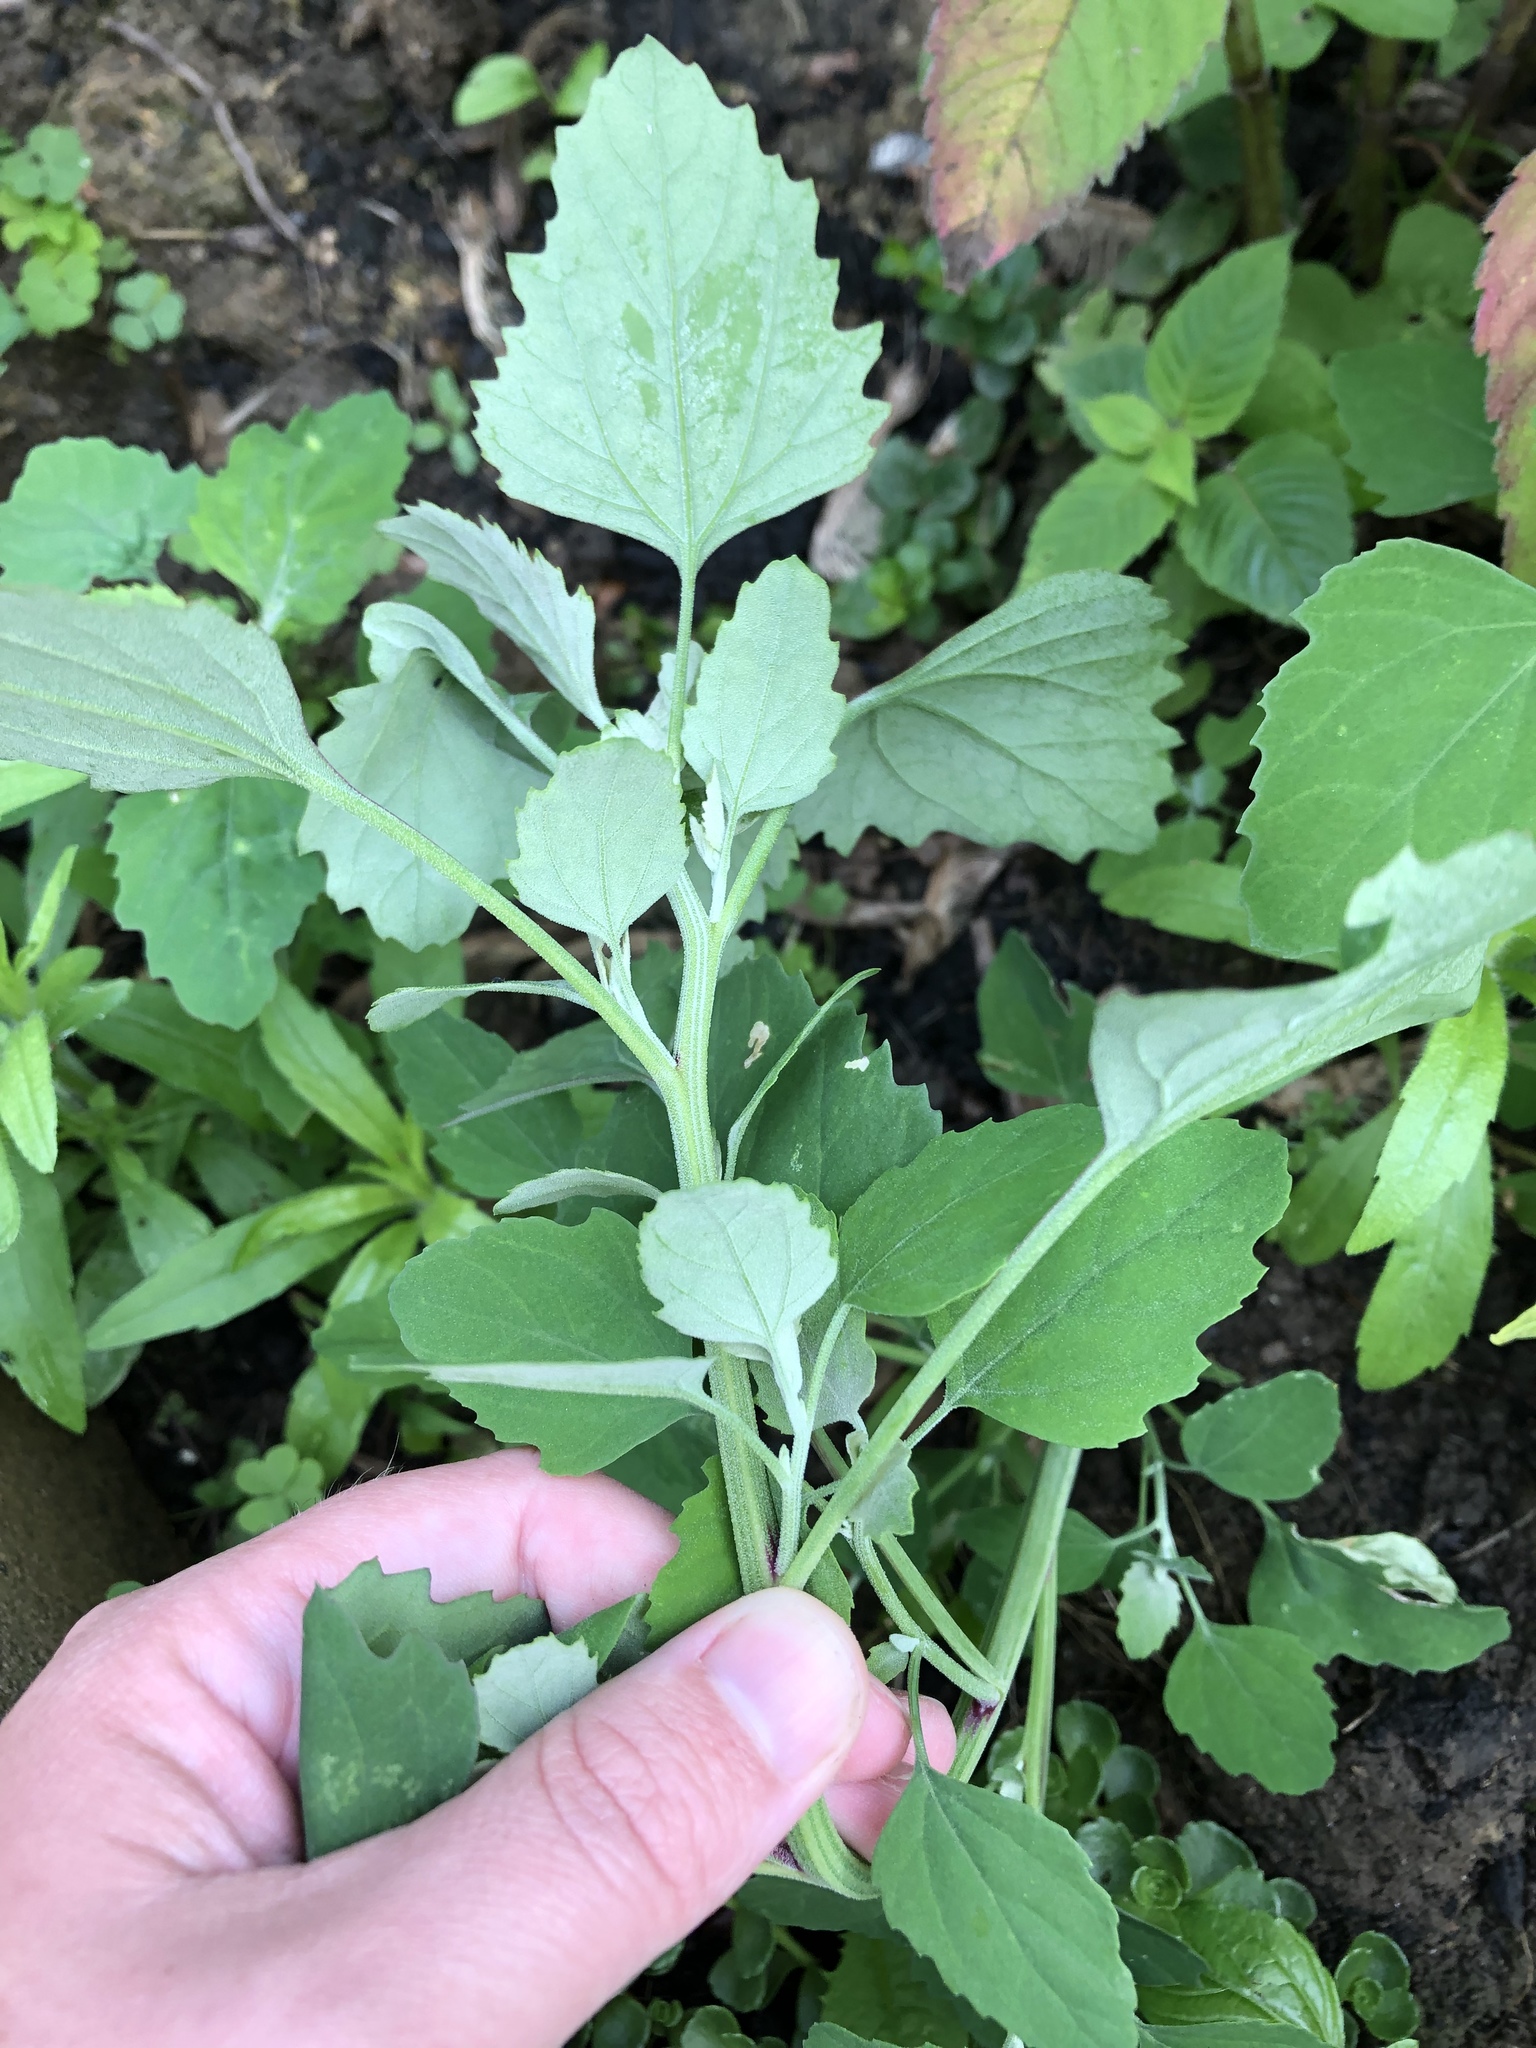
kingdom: Plantae
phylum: Tracheophyta
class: Magnoliopsida
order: Caryophyllales
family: Amaranthaceae
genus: Chenopodium
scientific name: Chenopodium album
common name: Fat-hen
